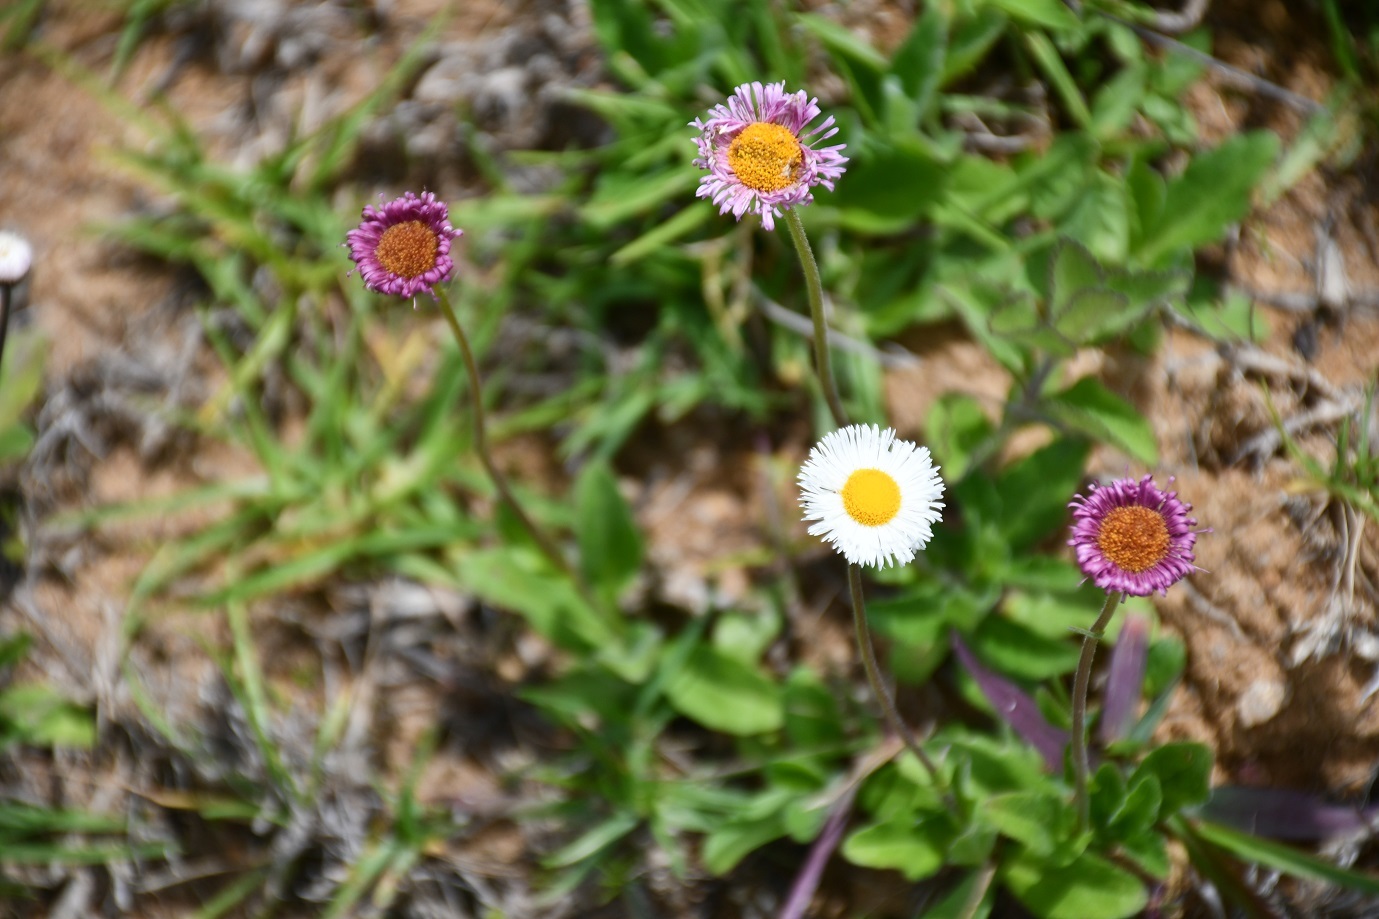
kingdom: Plantae
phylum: Tracheophyta
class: Magnoliopsida
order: Asterales
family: Asteraceae
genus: Erigeron
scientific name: Erigeron longipes
